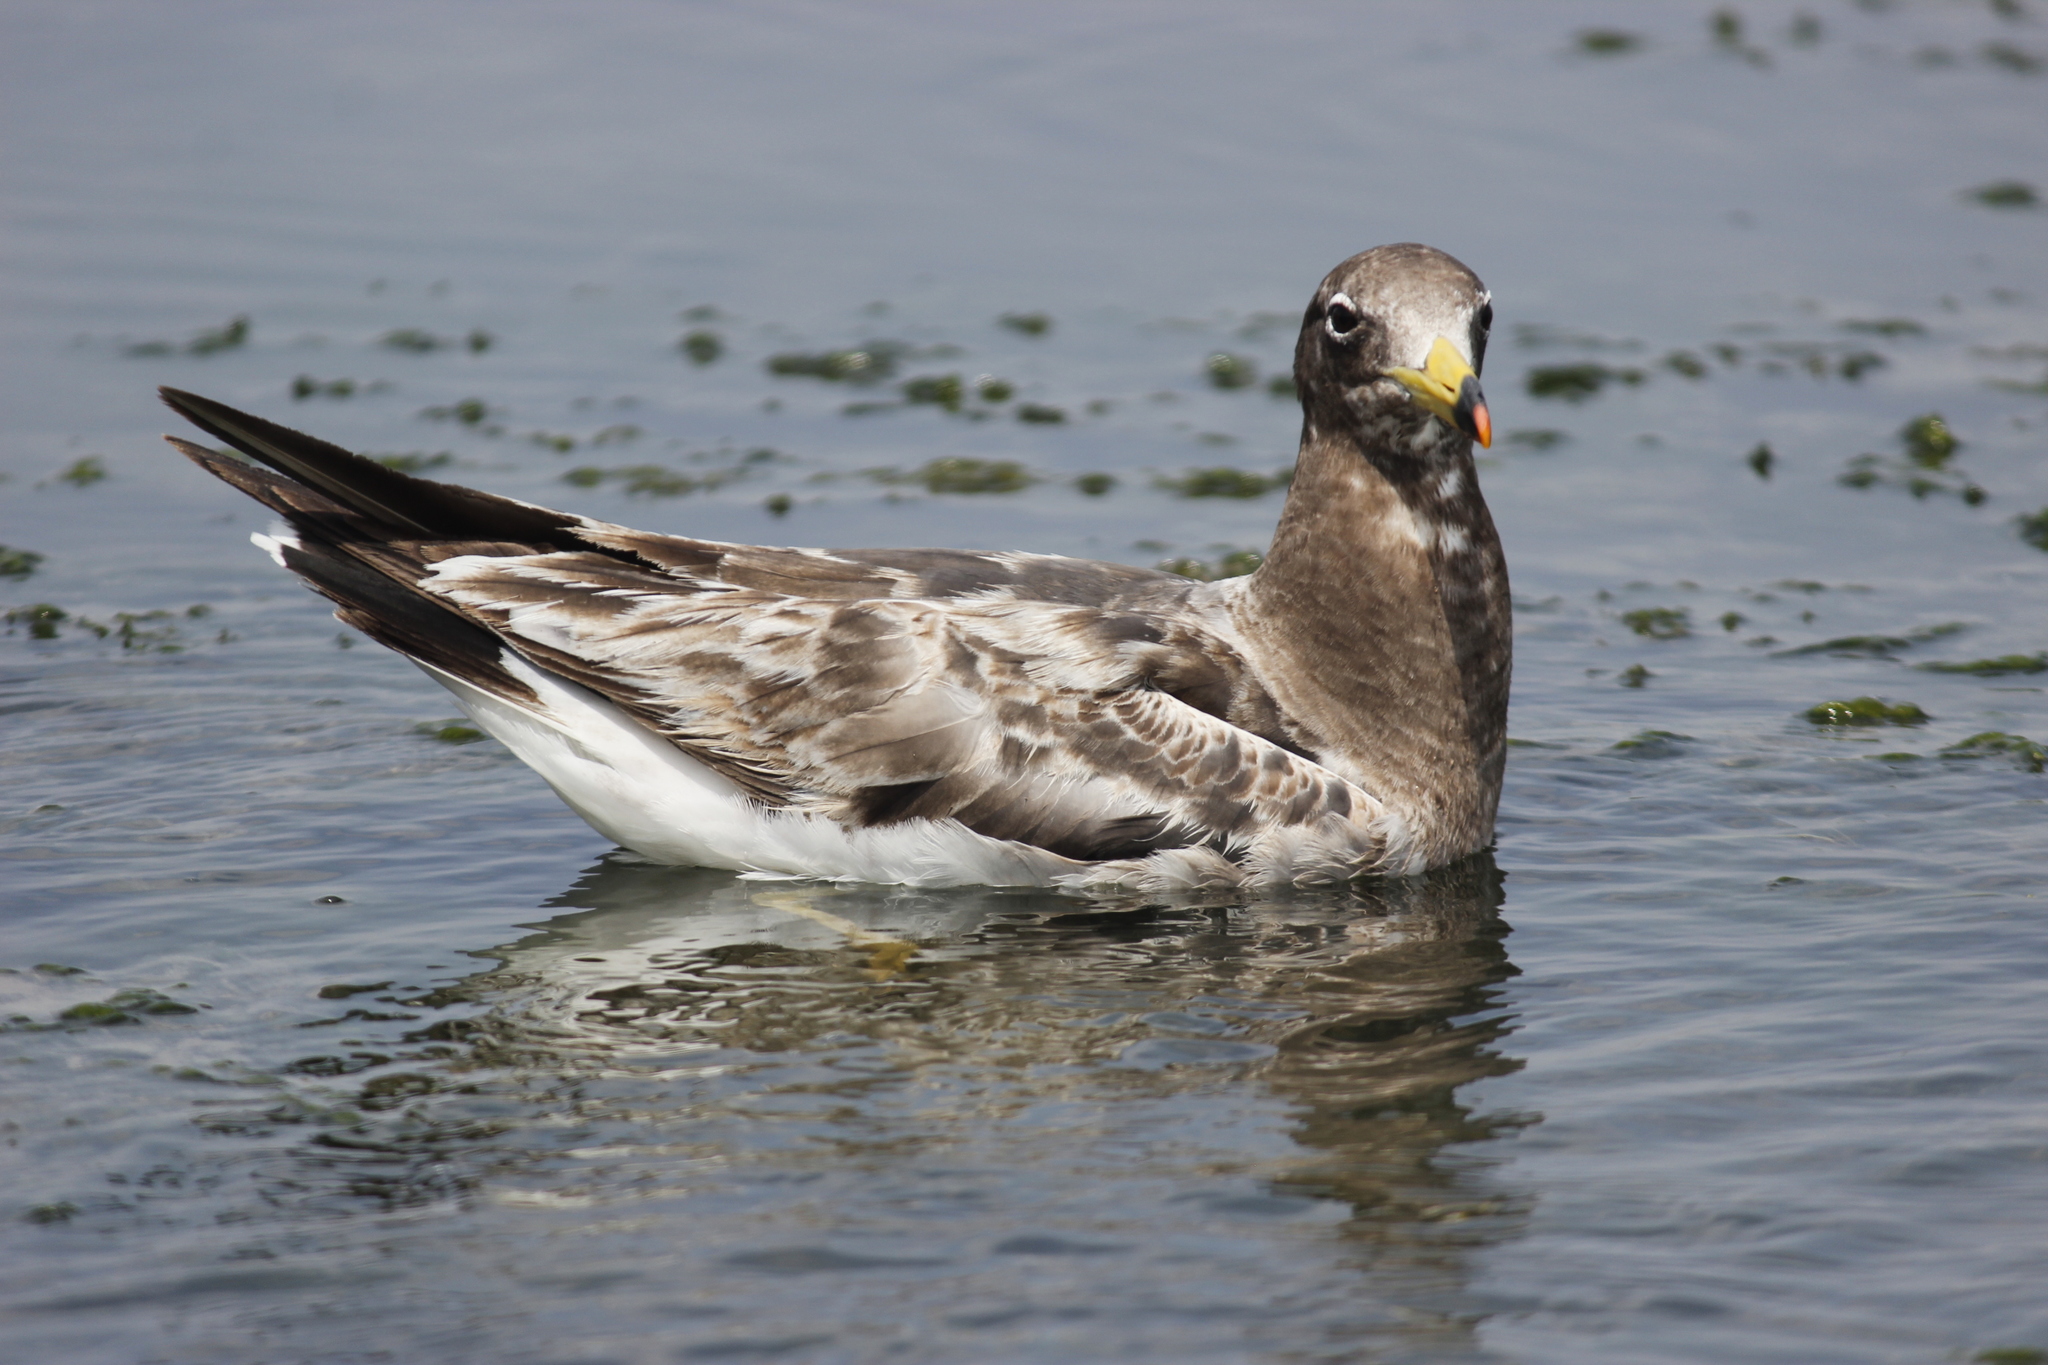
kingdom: Animalia
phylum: Chordata
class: Aves
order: Charadriiformes
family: Laridae
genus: Larus
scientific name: Larus belcheri
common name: Belcher's gull
